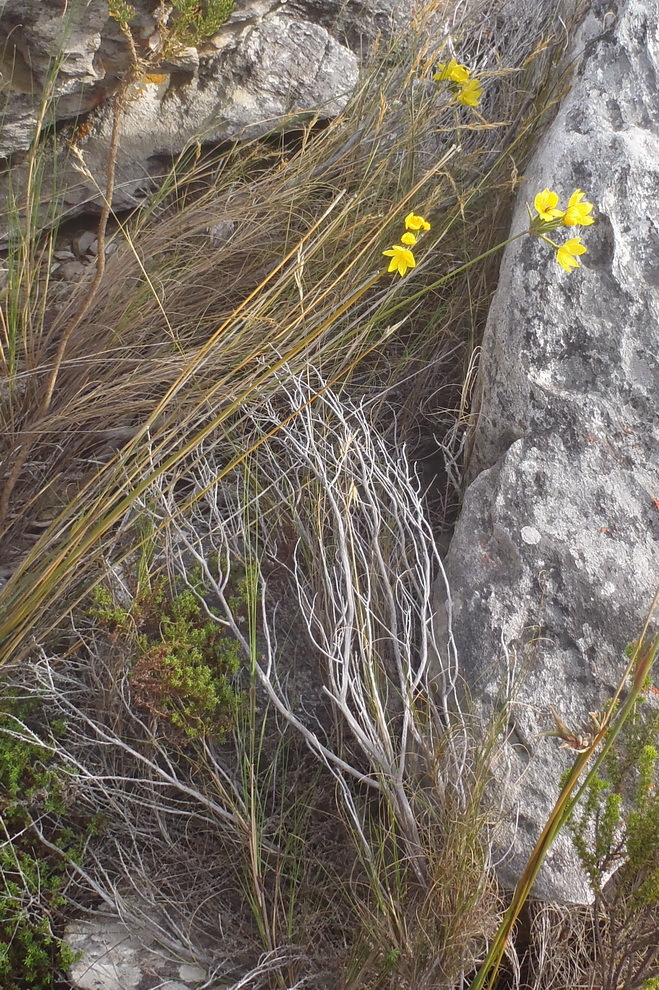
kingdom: Plantae
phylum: Tracheophyta
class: Liliopsida
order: Asparagales
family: Iridaceae
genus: Bobartia
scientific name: Bobartia longicyma
